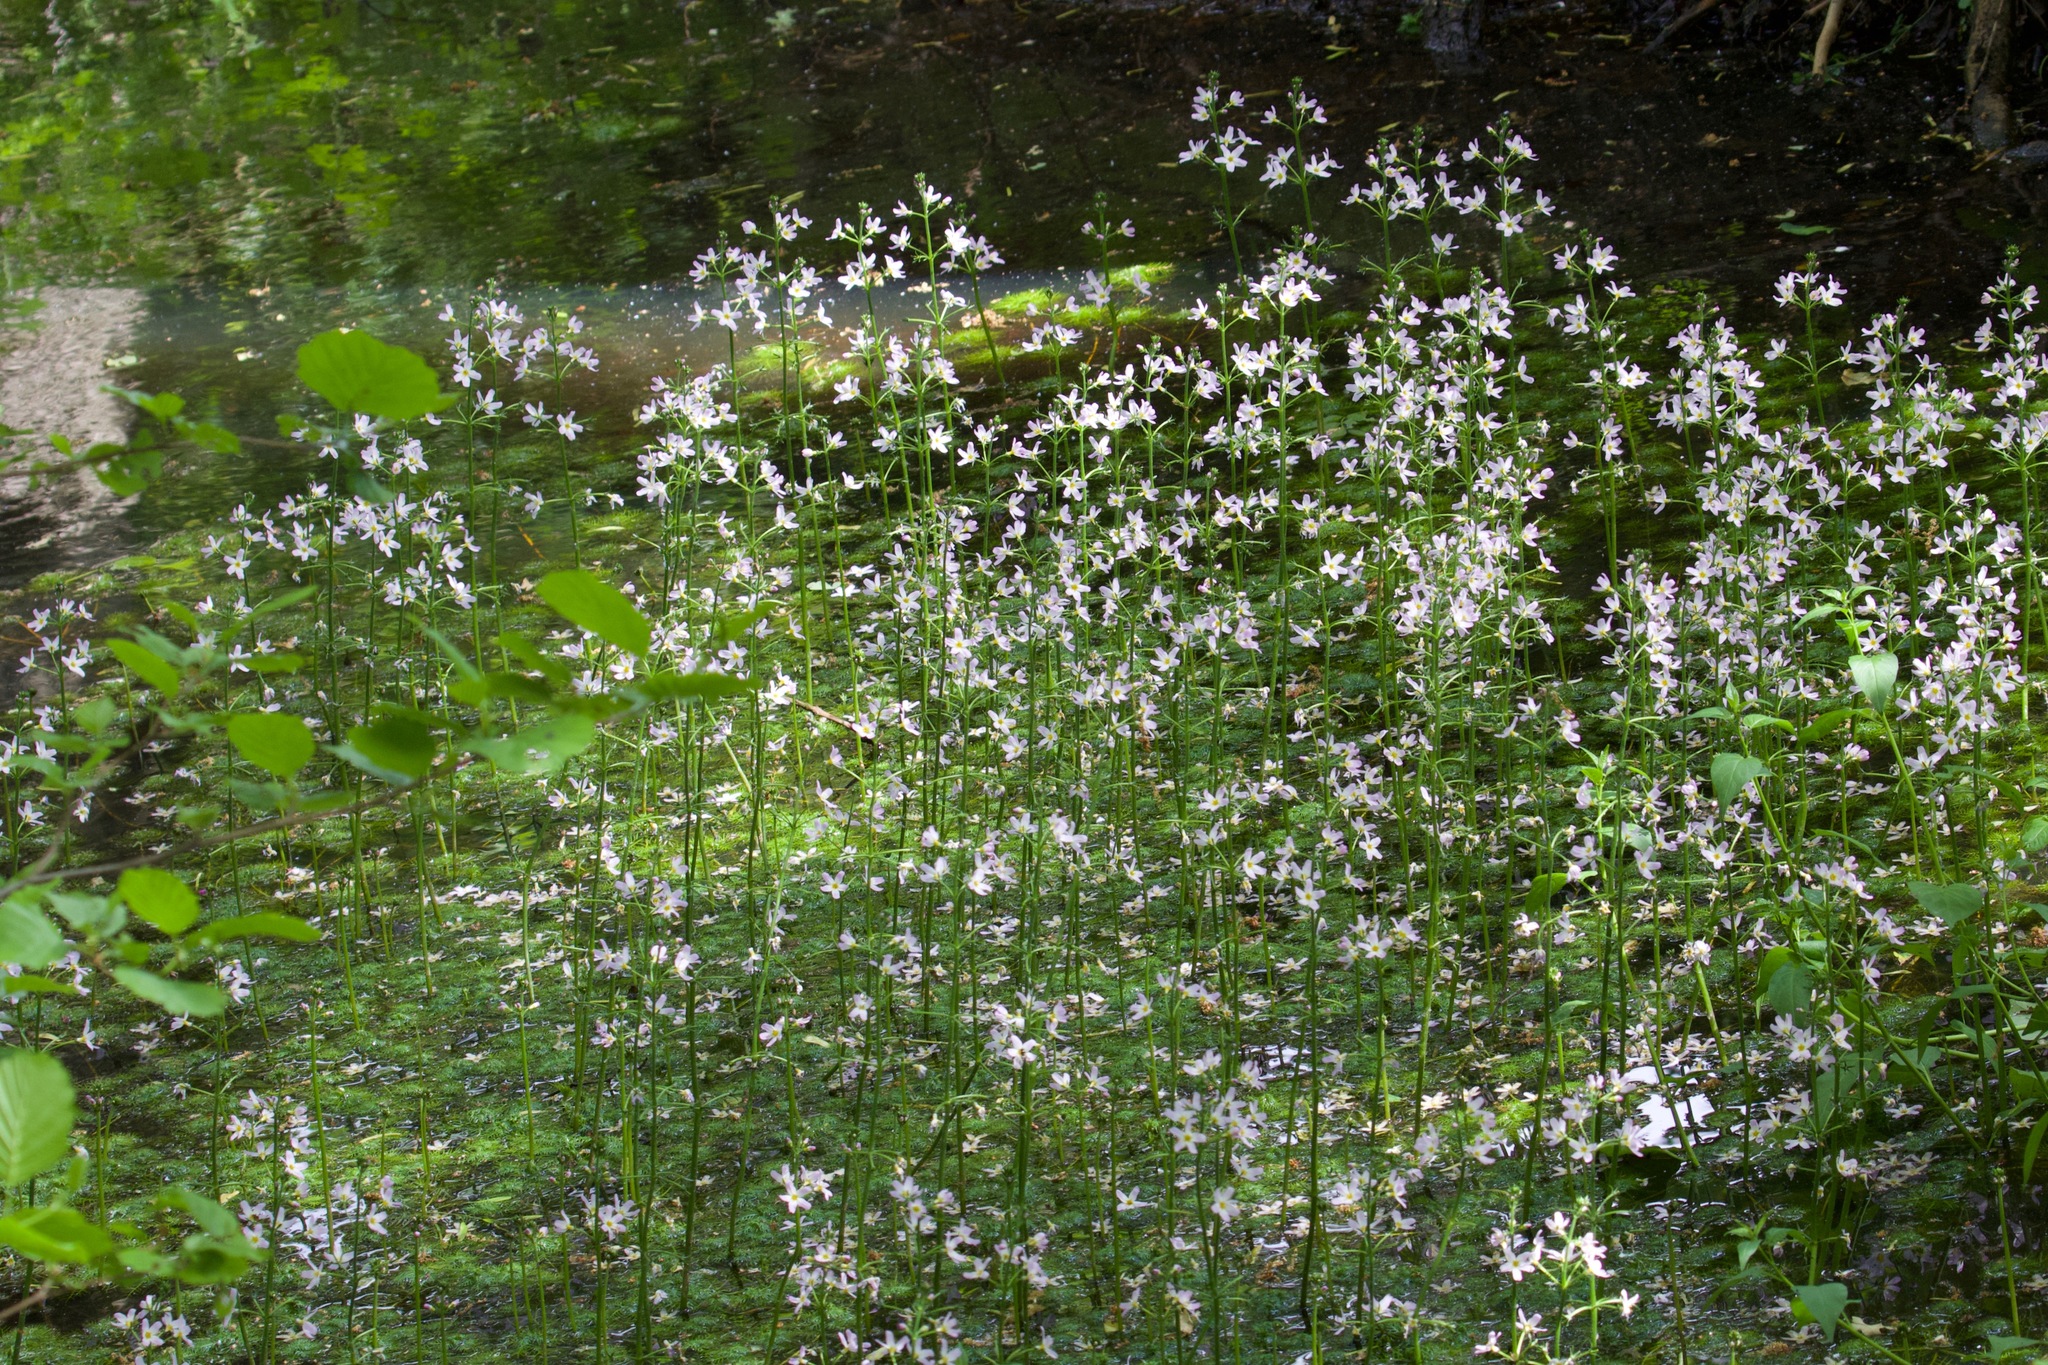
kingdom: Plantae
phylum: Tracheophyta
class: Magnoliopsida
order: Ericales
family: Primulaceae
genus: Hottonia
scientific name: Hottonia palustris
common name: Water-violet
